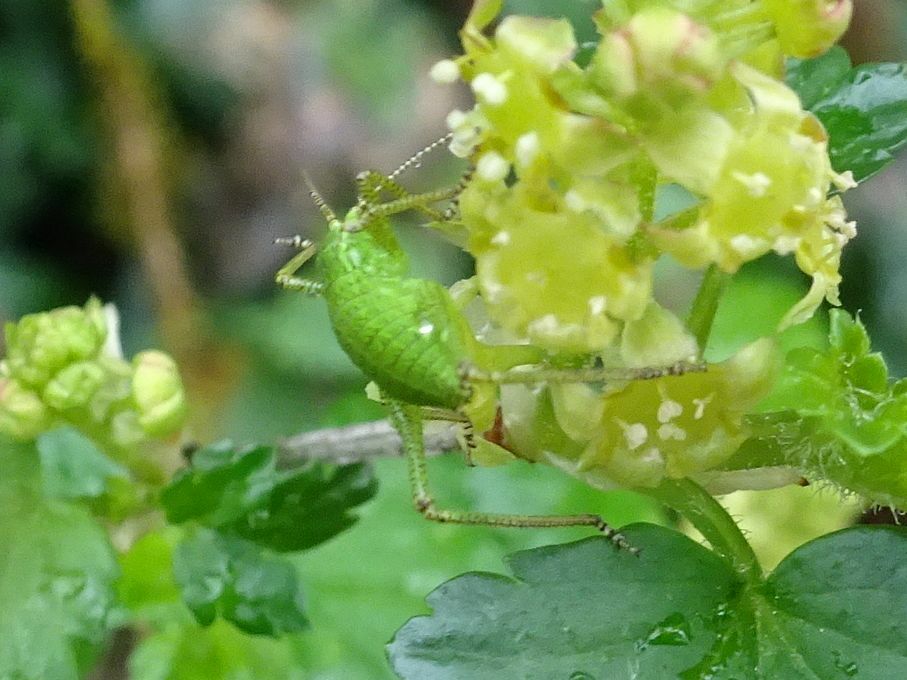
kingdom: Animalia
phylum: Arthropoda
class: Insecta
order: Orthoptera
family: Tettigoniidae
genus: Barbitistes
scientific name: Barbitistes serricauda
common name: Saw-tailed bush-cricket
